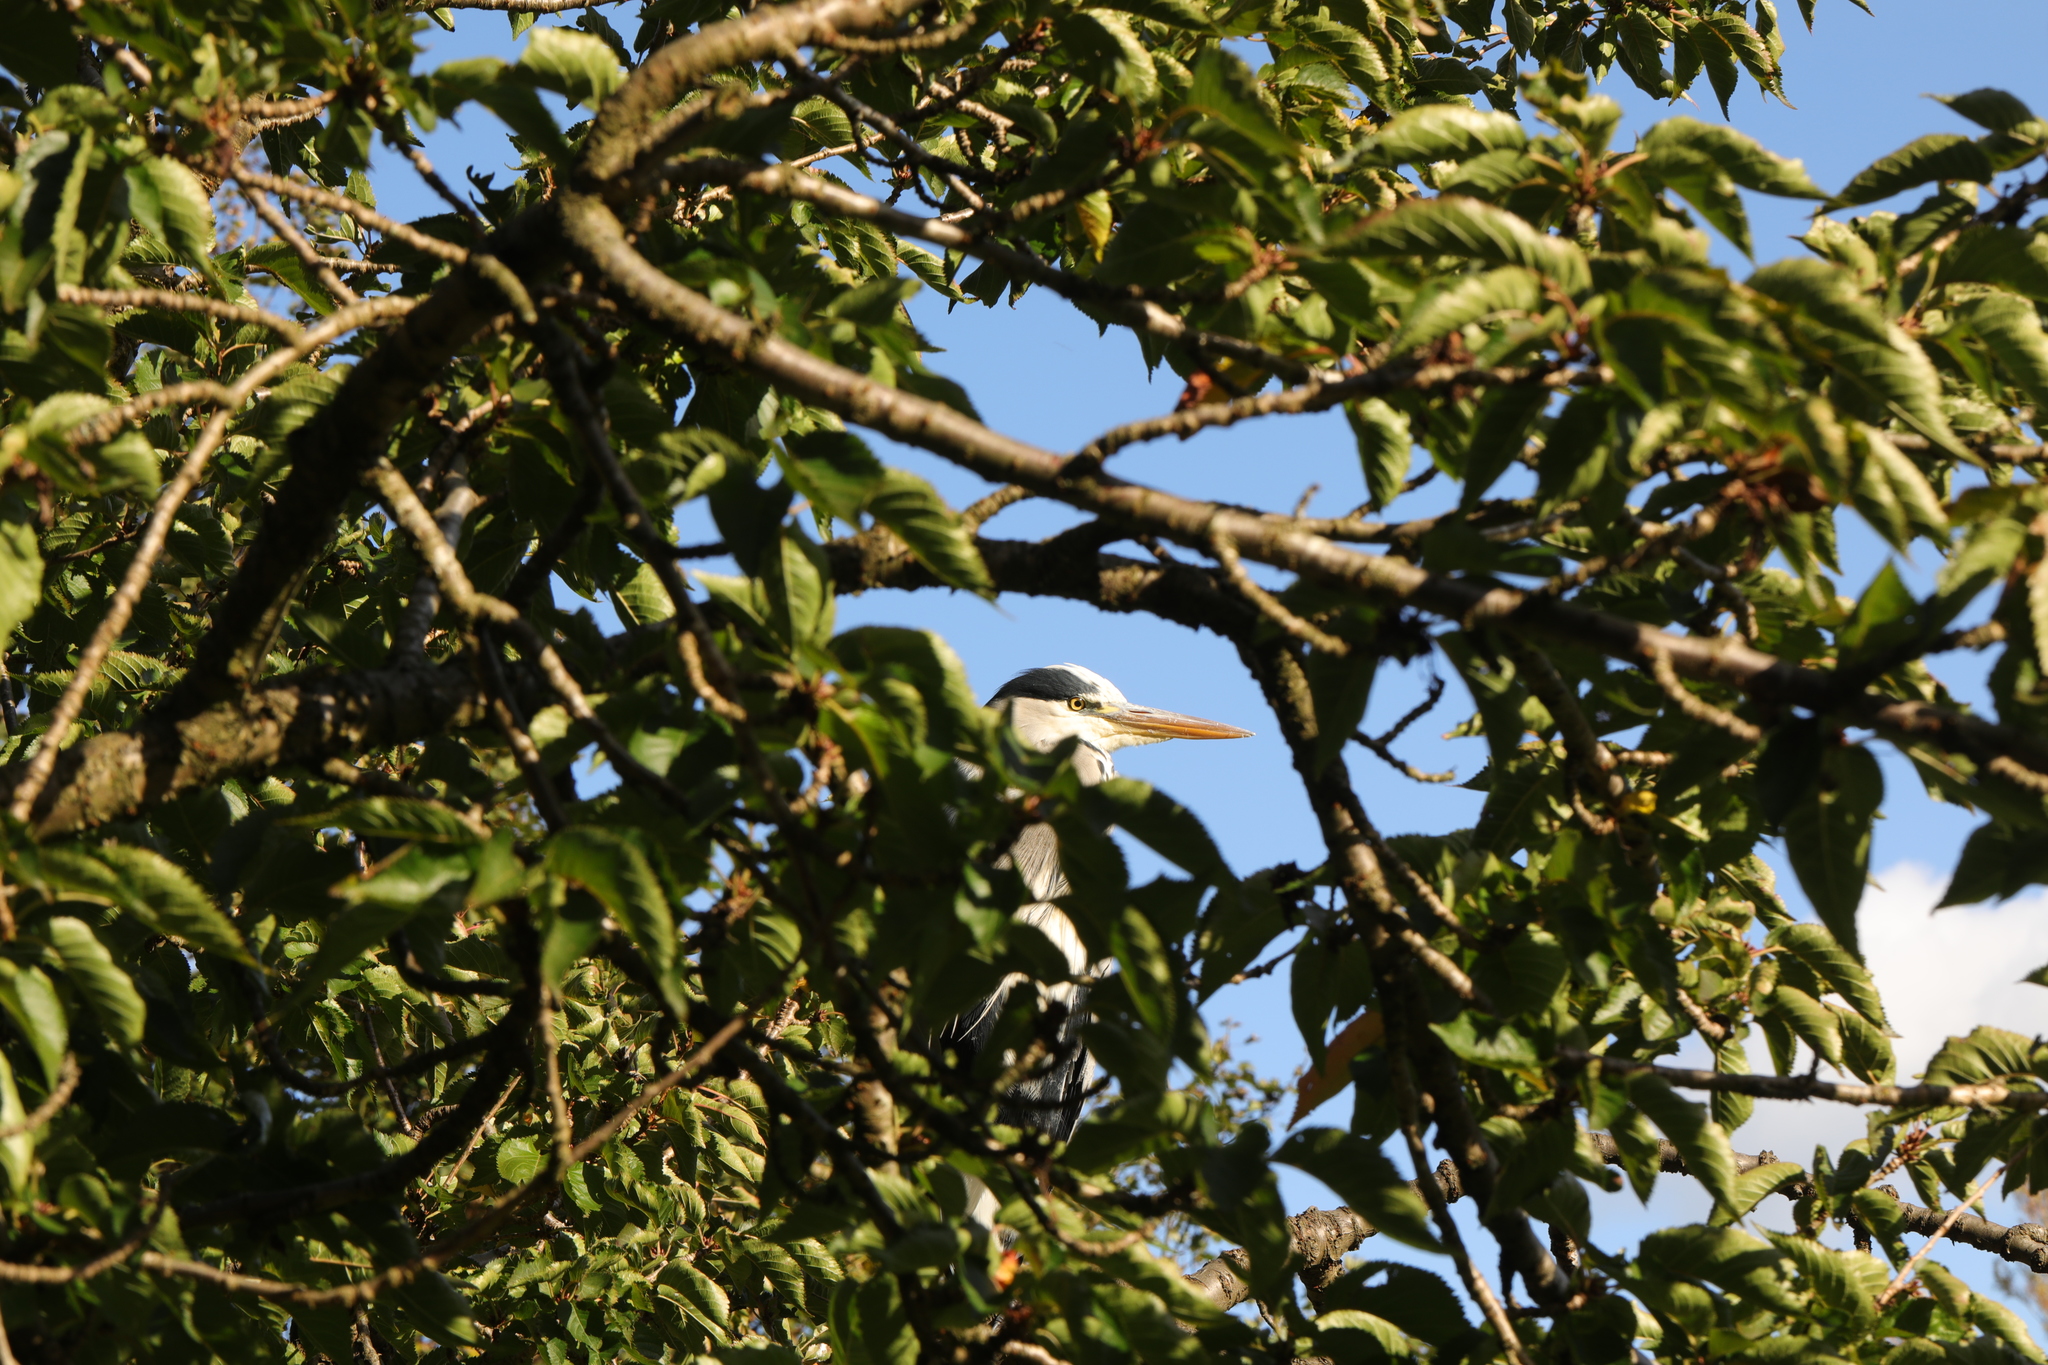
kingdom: Animalia
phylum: Chordata
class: Aves
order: Pelecaniformes
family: Ardeidae
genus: Ardea
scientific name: Ardea cinerea
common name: Grey heron
